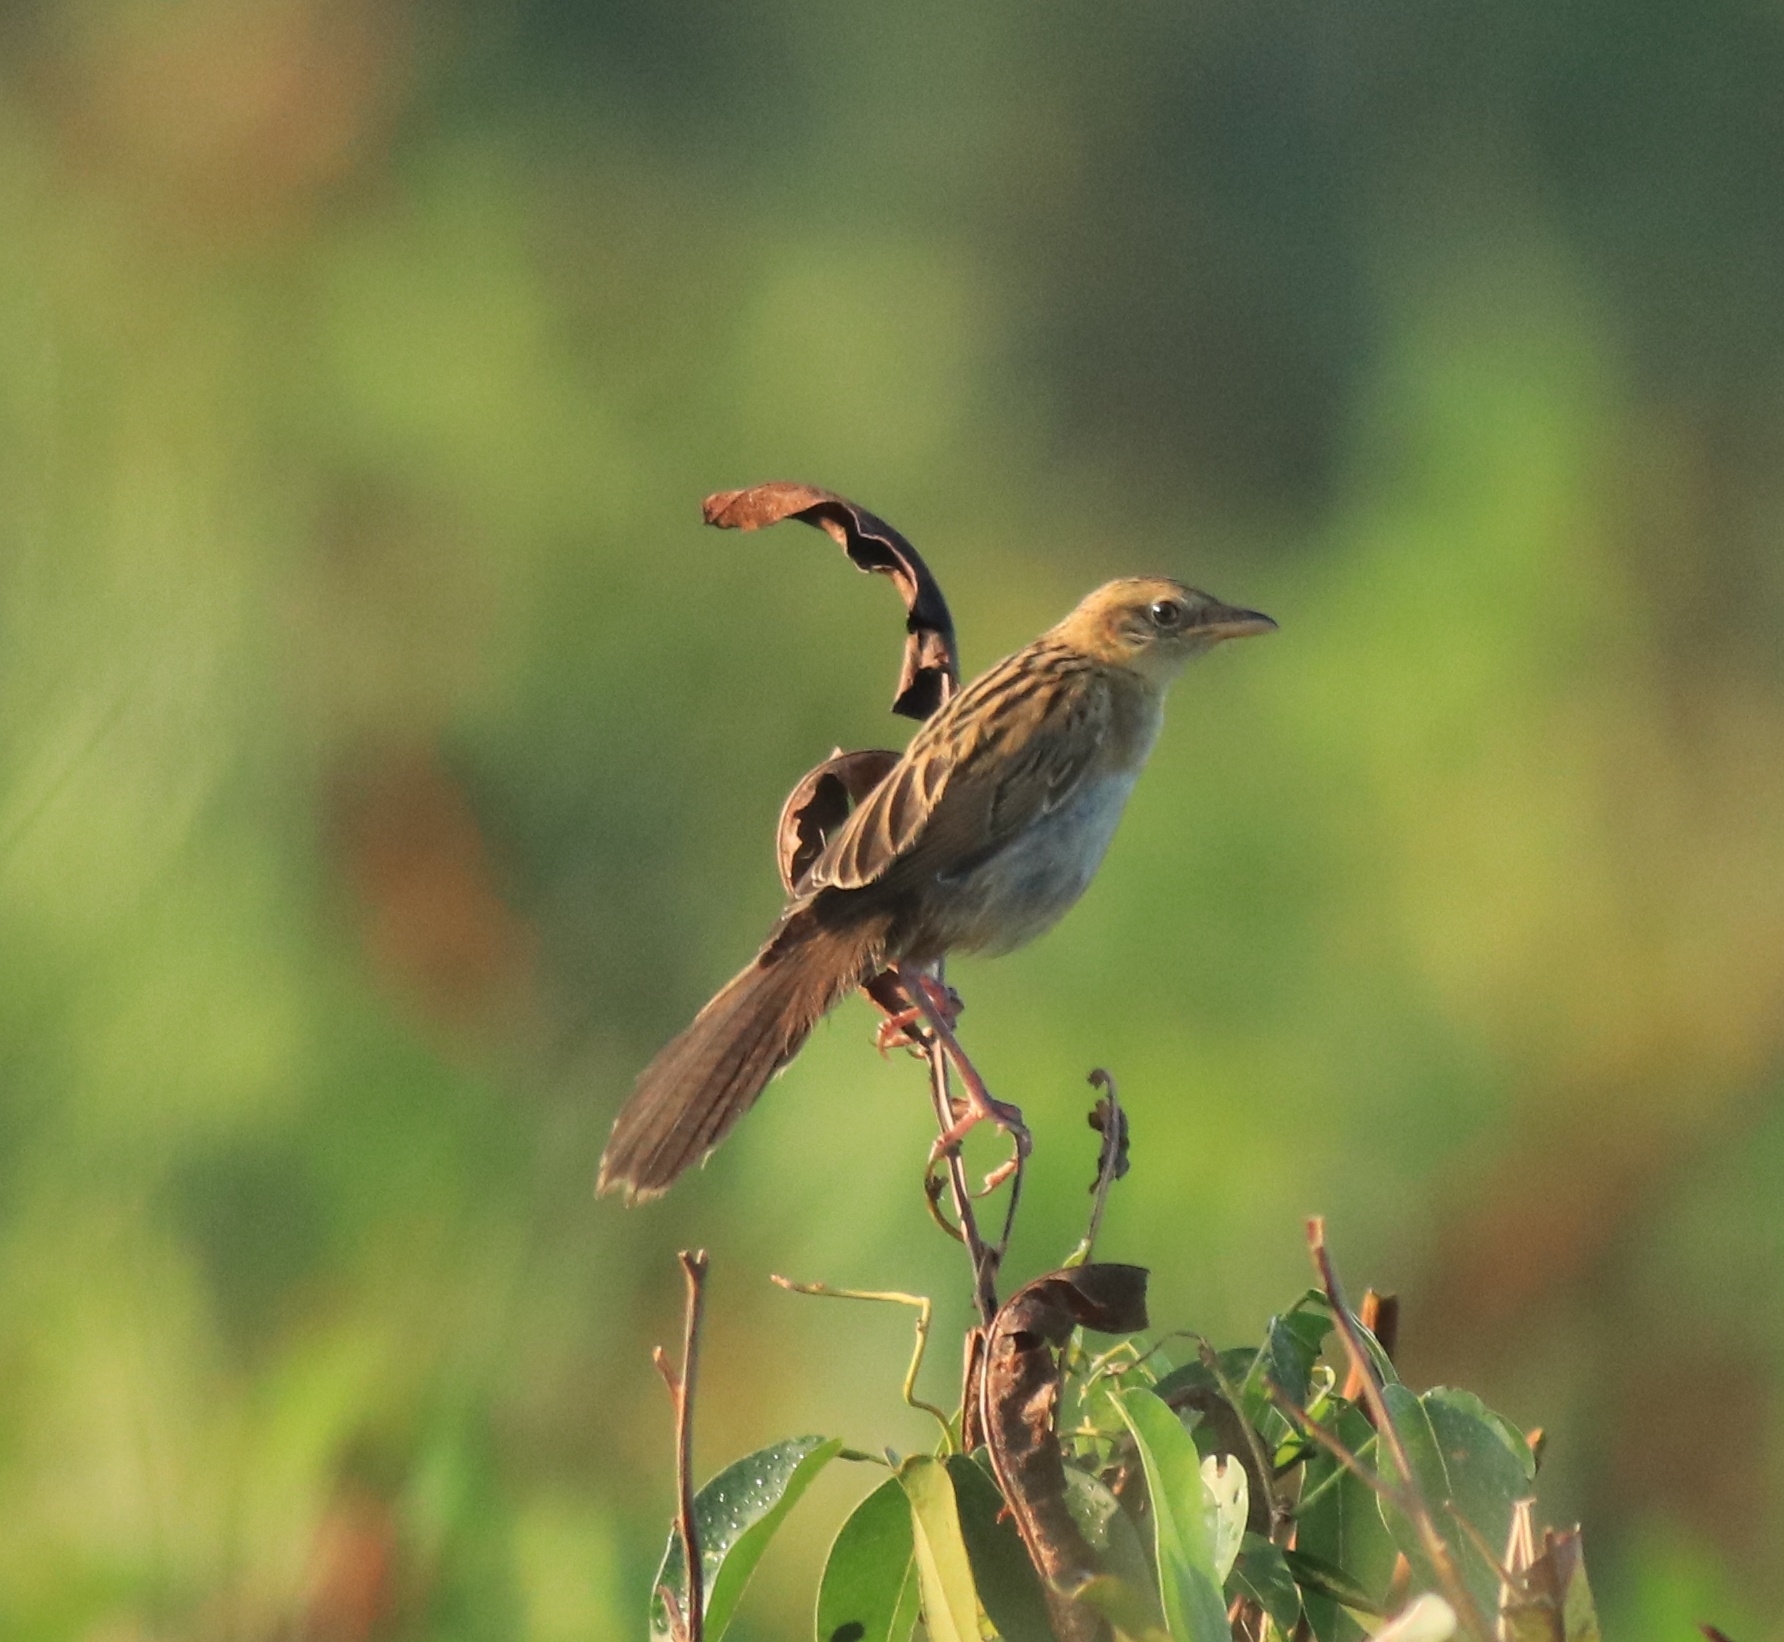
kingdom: Animalia
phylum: Chordata
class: Aves
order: Passeriformes
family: Locustellidae
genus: Chaetornis
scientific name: Chaetornis striata
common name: Bristled grassbird
